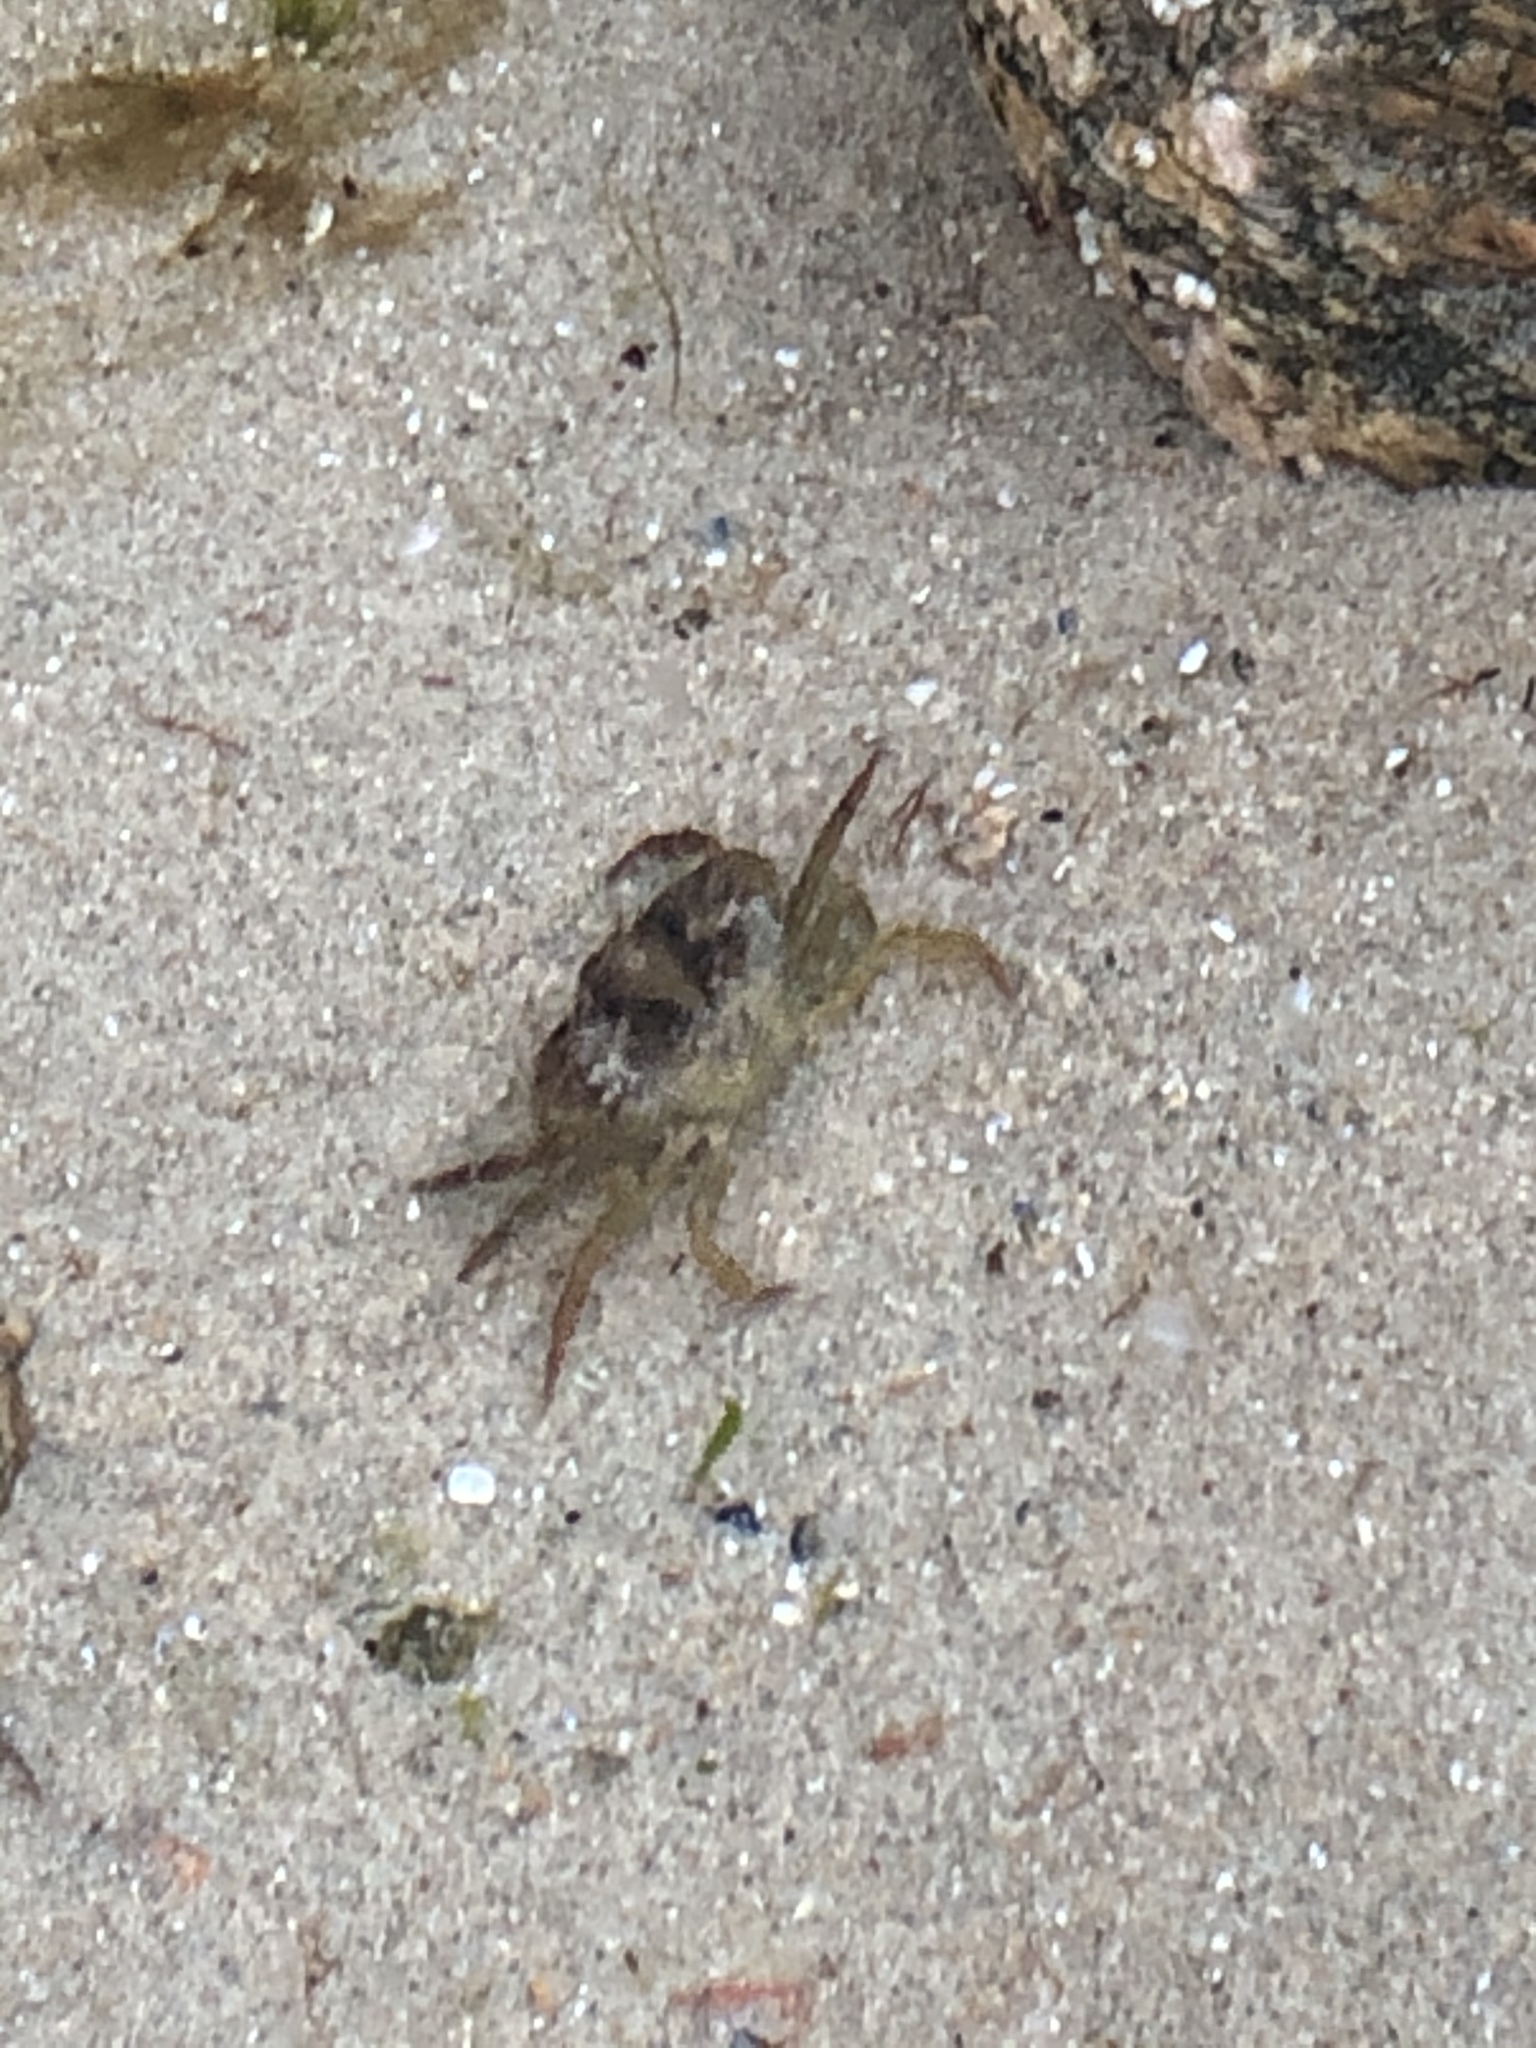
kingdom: Animalia
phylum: Arthropoda
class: Malacostraca
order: Decapoda
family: Carcinidae
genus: Carcinus
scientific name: Carcinus maenas
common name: European green crab
